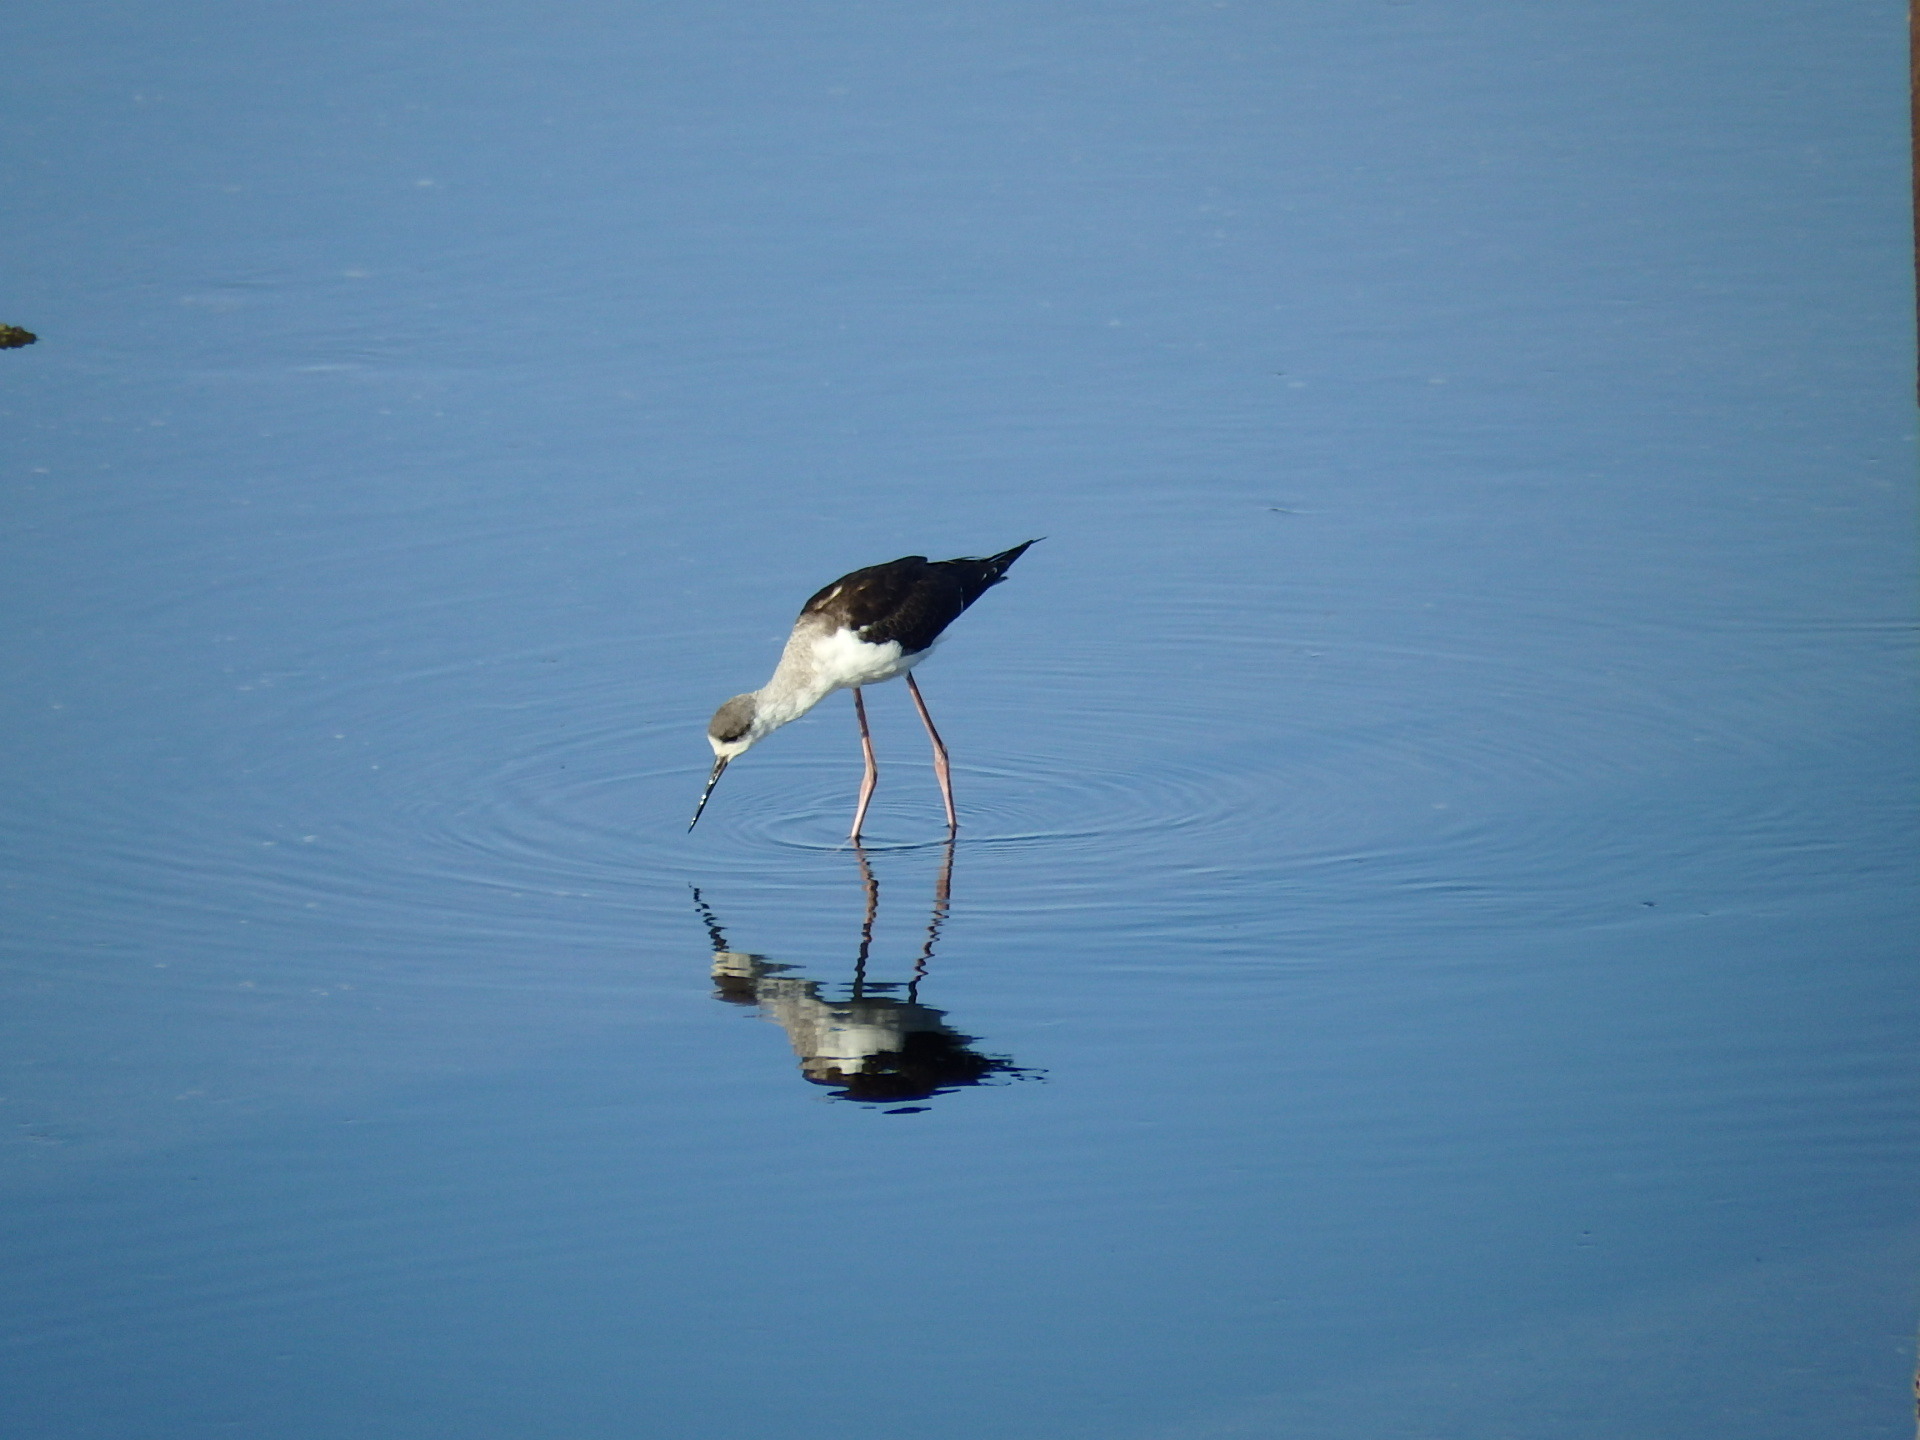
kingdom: Animalia
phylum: Chordata
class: Aves
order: Charadriiformes
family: Recurvirostridae
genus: Himantopus
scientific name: Himantopus himantopus
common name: Black-winged stilt
